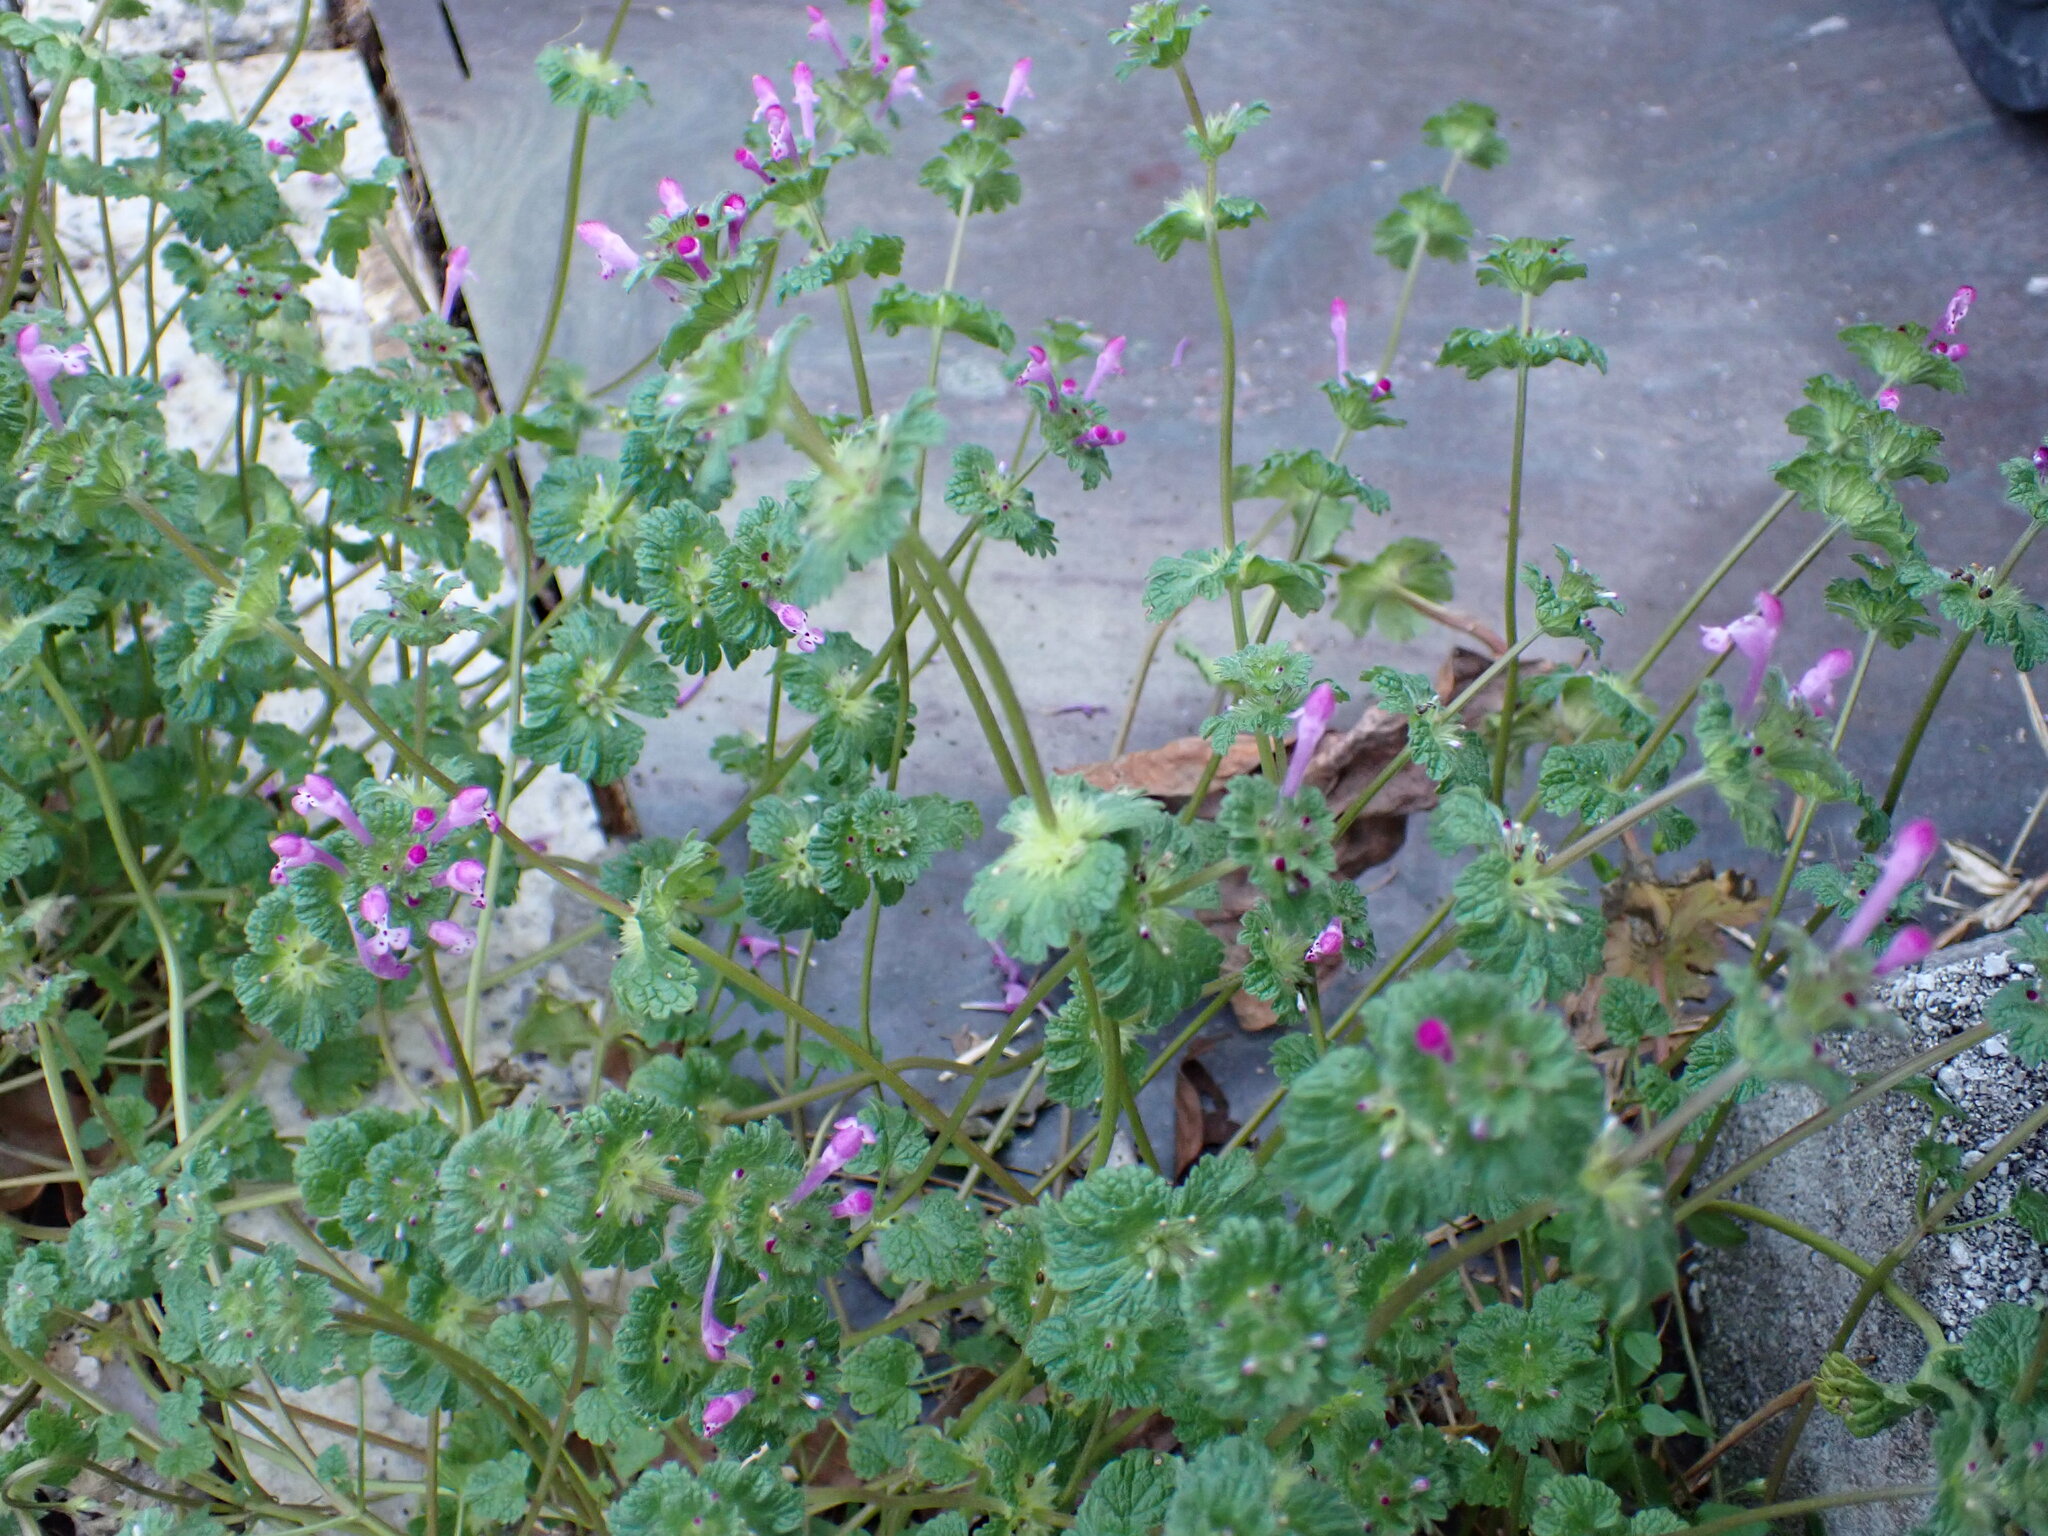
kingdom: Plantae
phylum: Tracheophyta
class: Magnoliopsida
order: Lamiales
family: Lamiaceae
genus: Lamium
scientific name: Lamium amplexicaule
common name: Henbit dead-nettle
